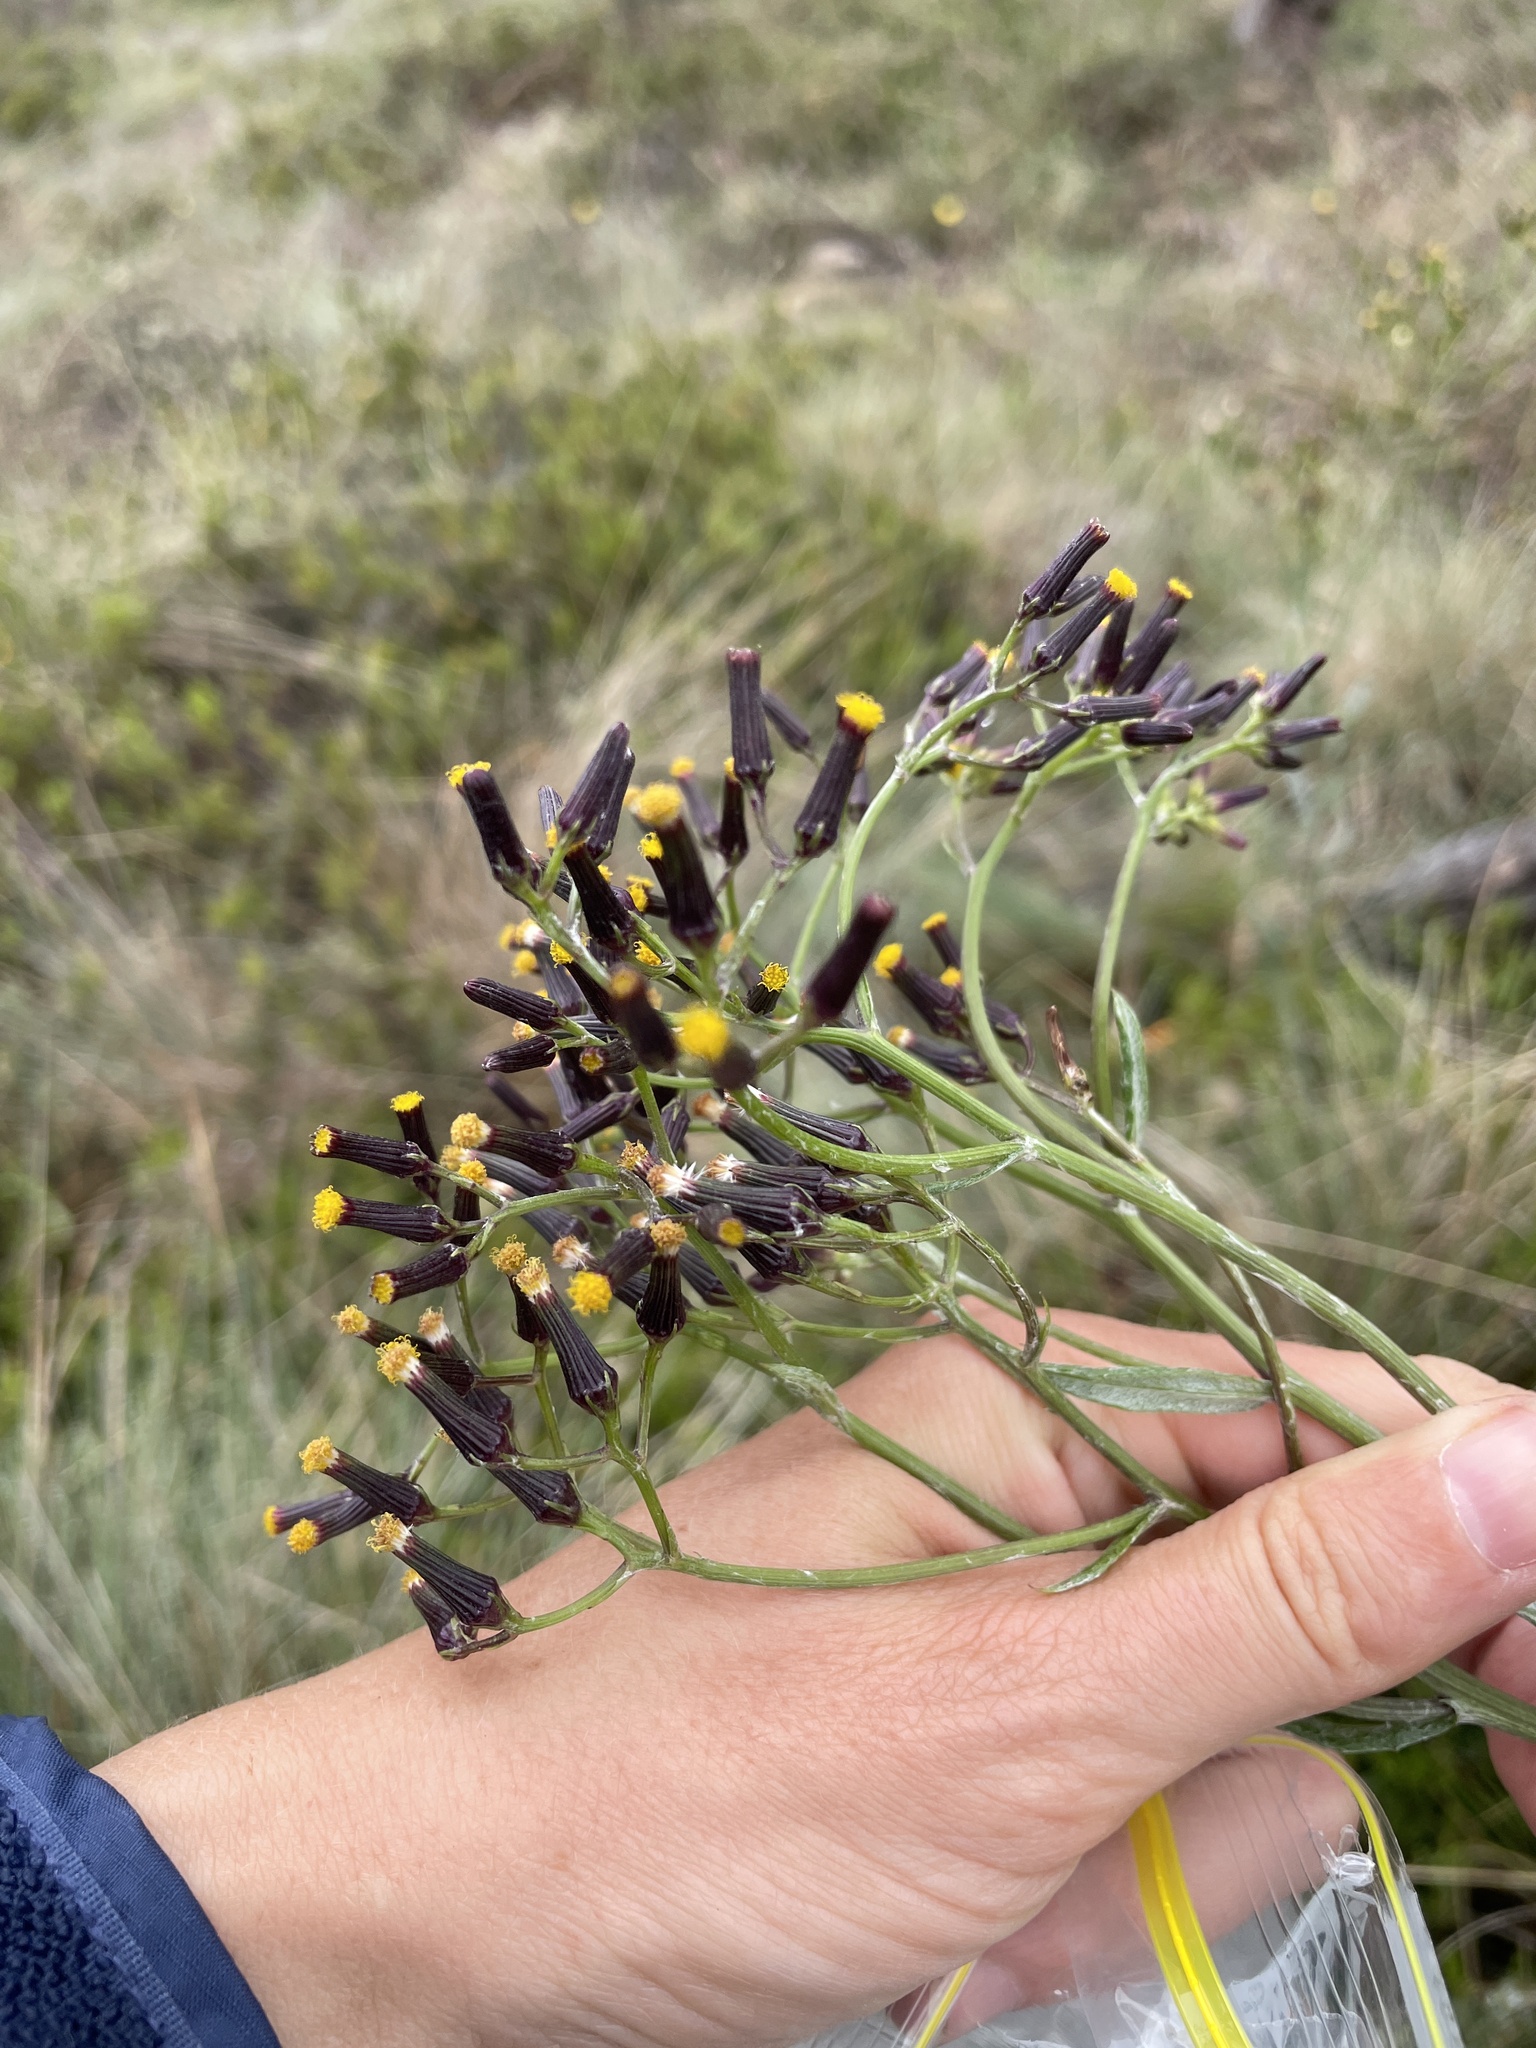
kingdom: Plantae
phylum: Tracheophyta
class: Magnoliopsida
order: Asterales
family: Asteraceae
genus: Senecio
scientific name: Senecio gunnii
